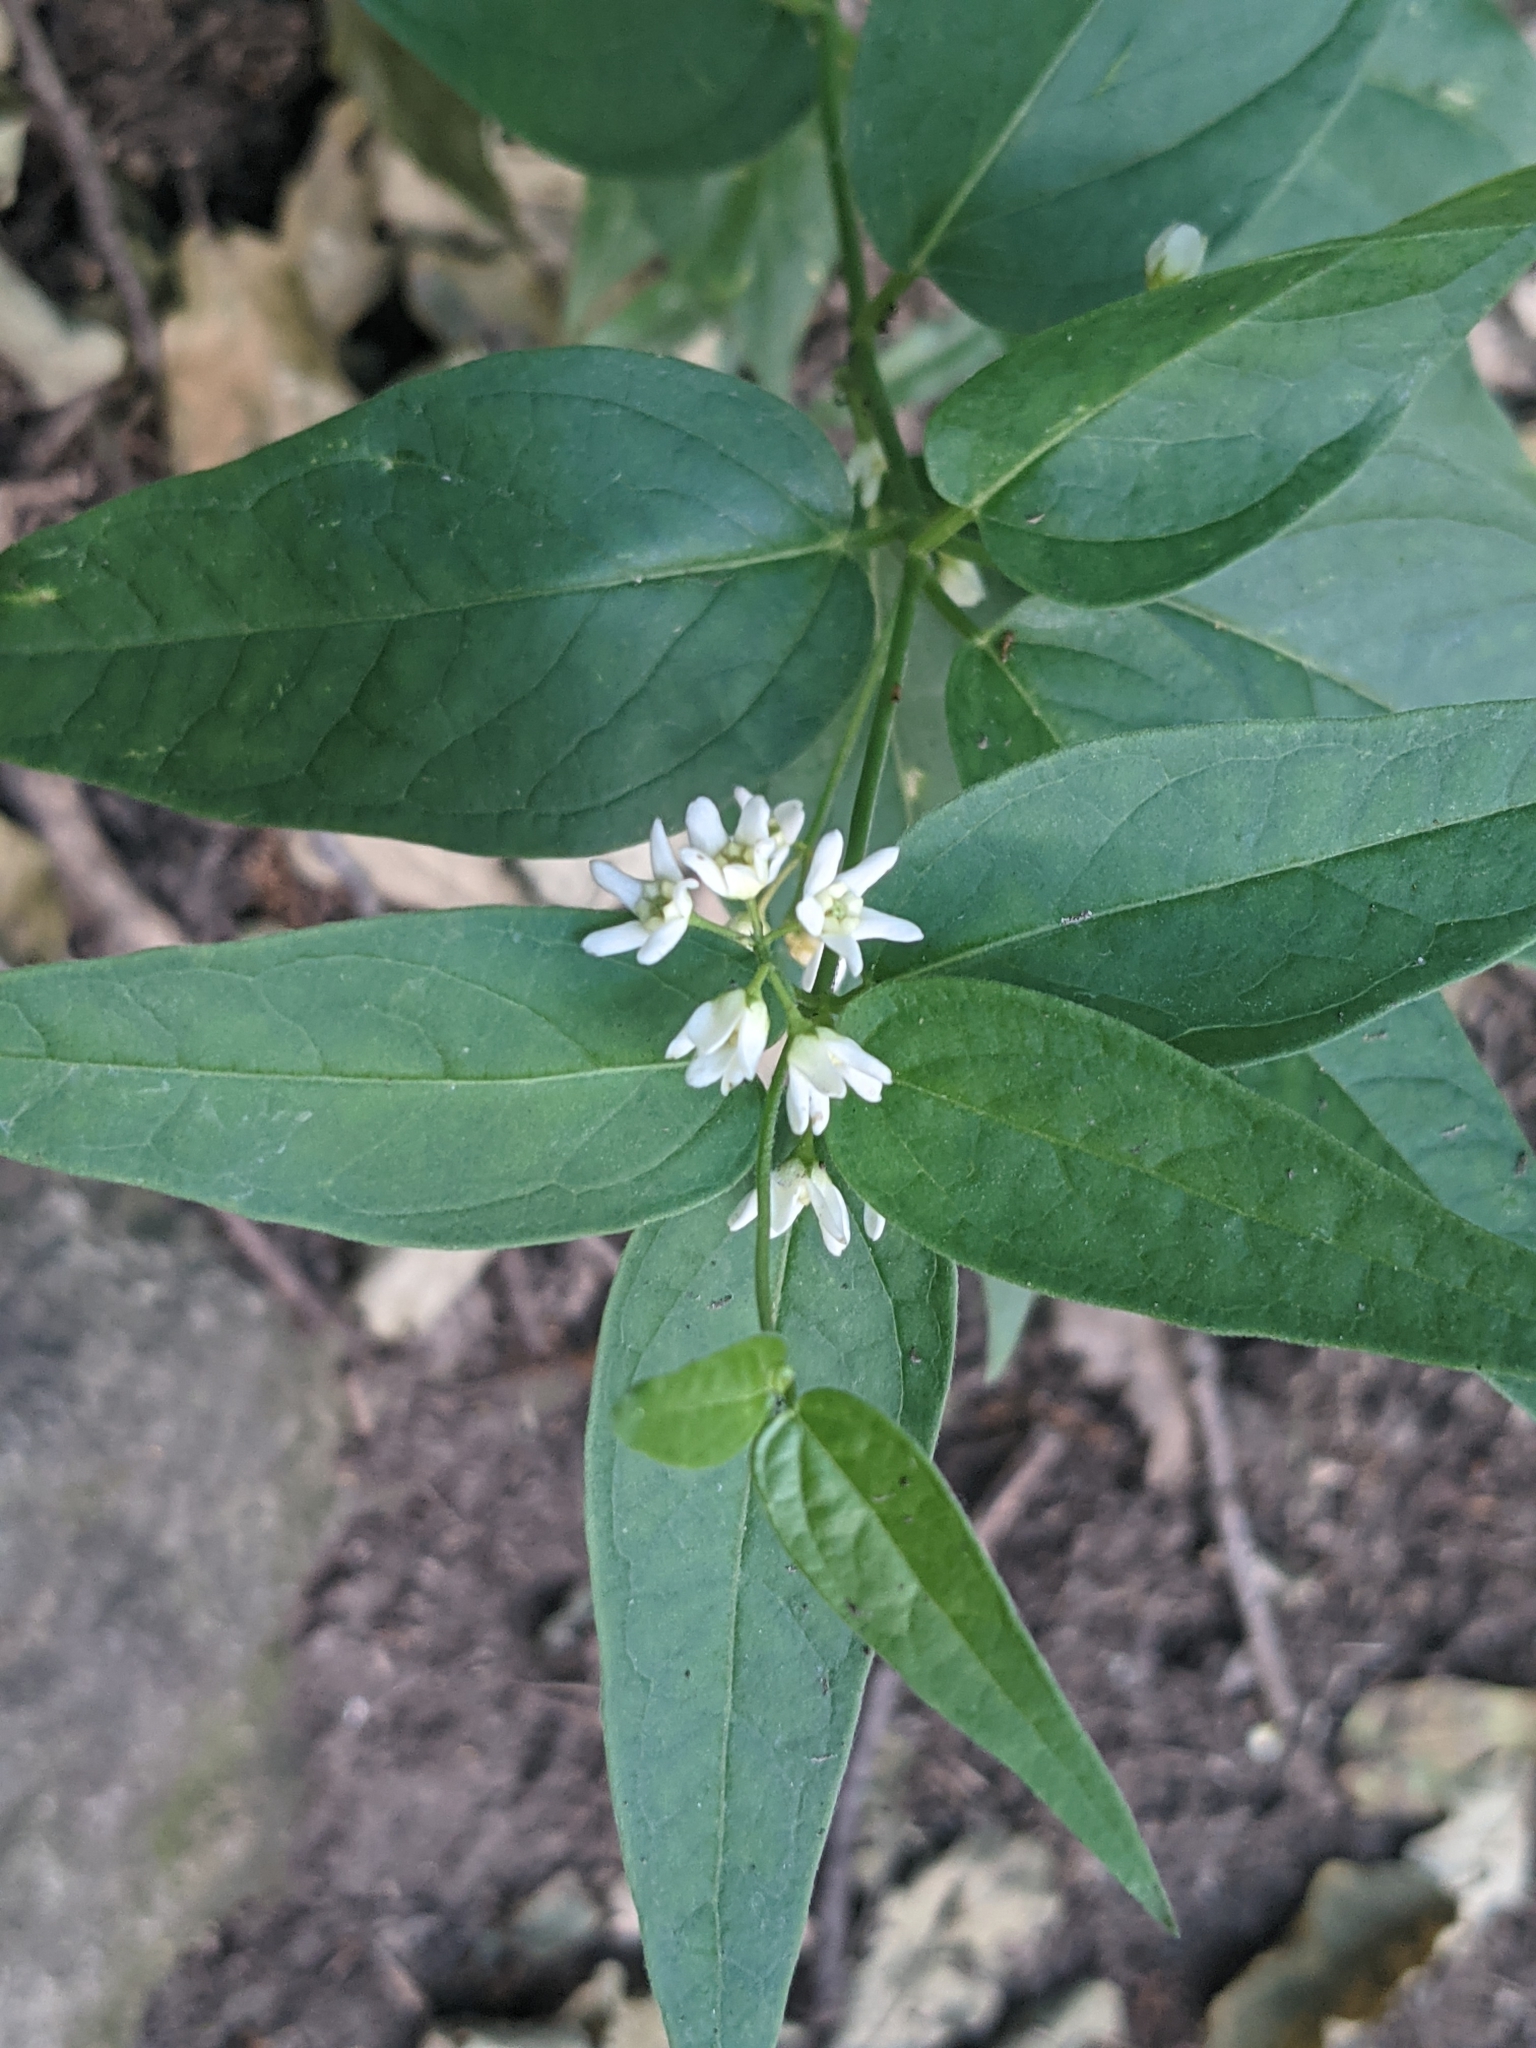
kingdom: Plantae
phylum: Tracheophyta
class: Magnoliopsida
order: Gentianales
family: Apocynaceae
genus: Vincetoxicum
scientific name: Vincetoxicum hirundinaria
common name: White swallowwort
